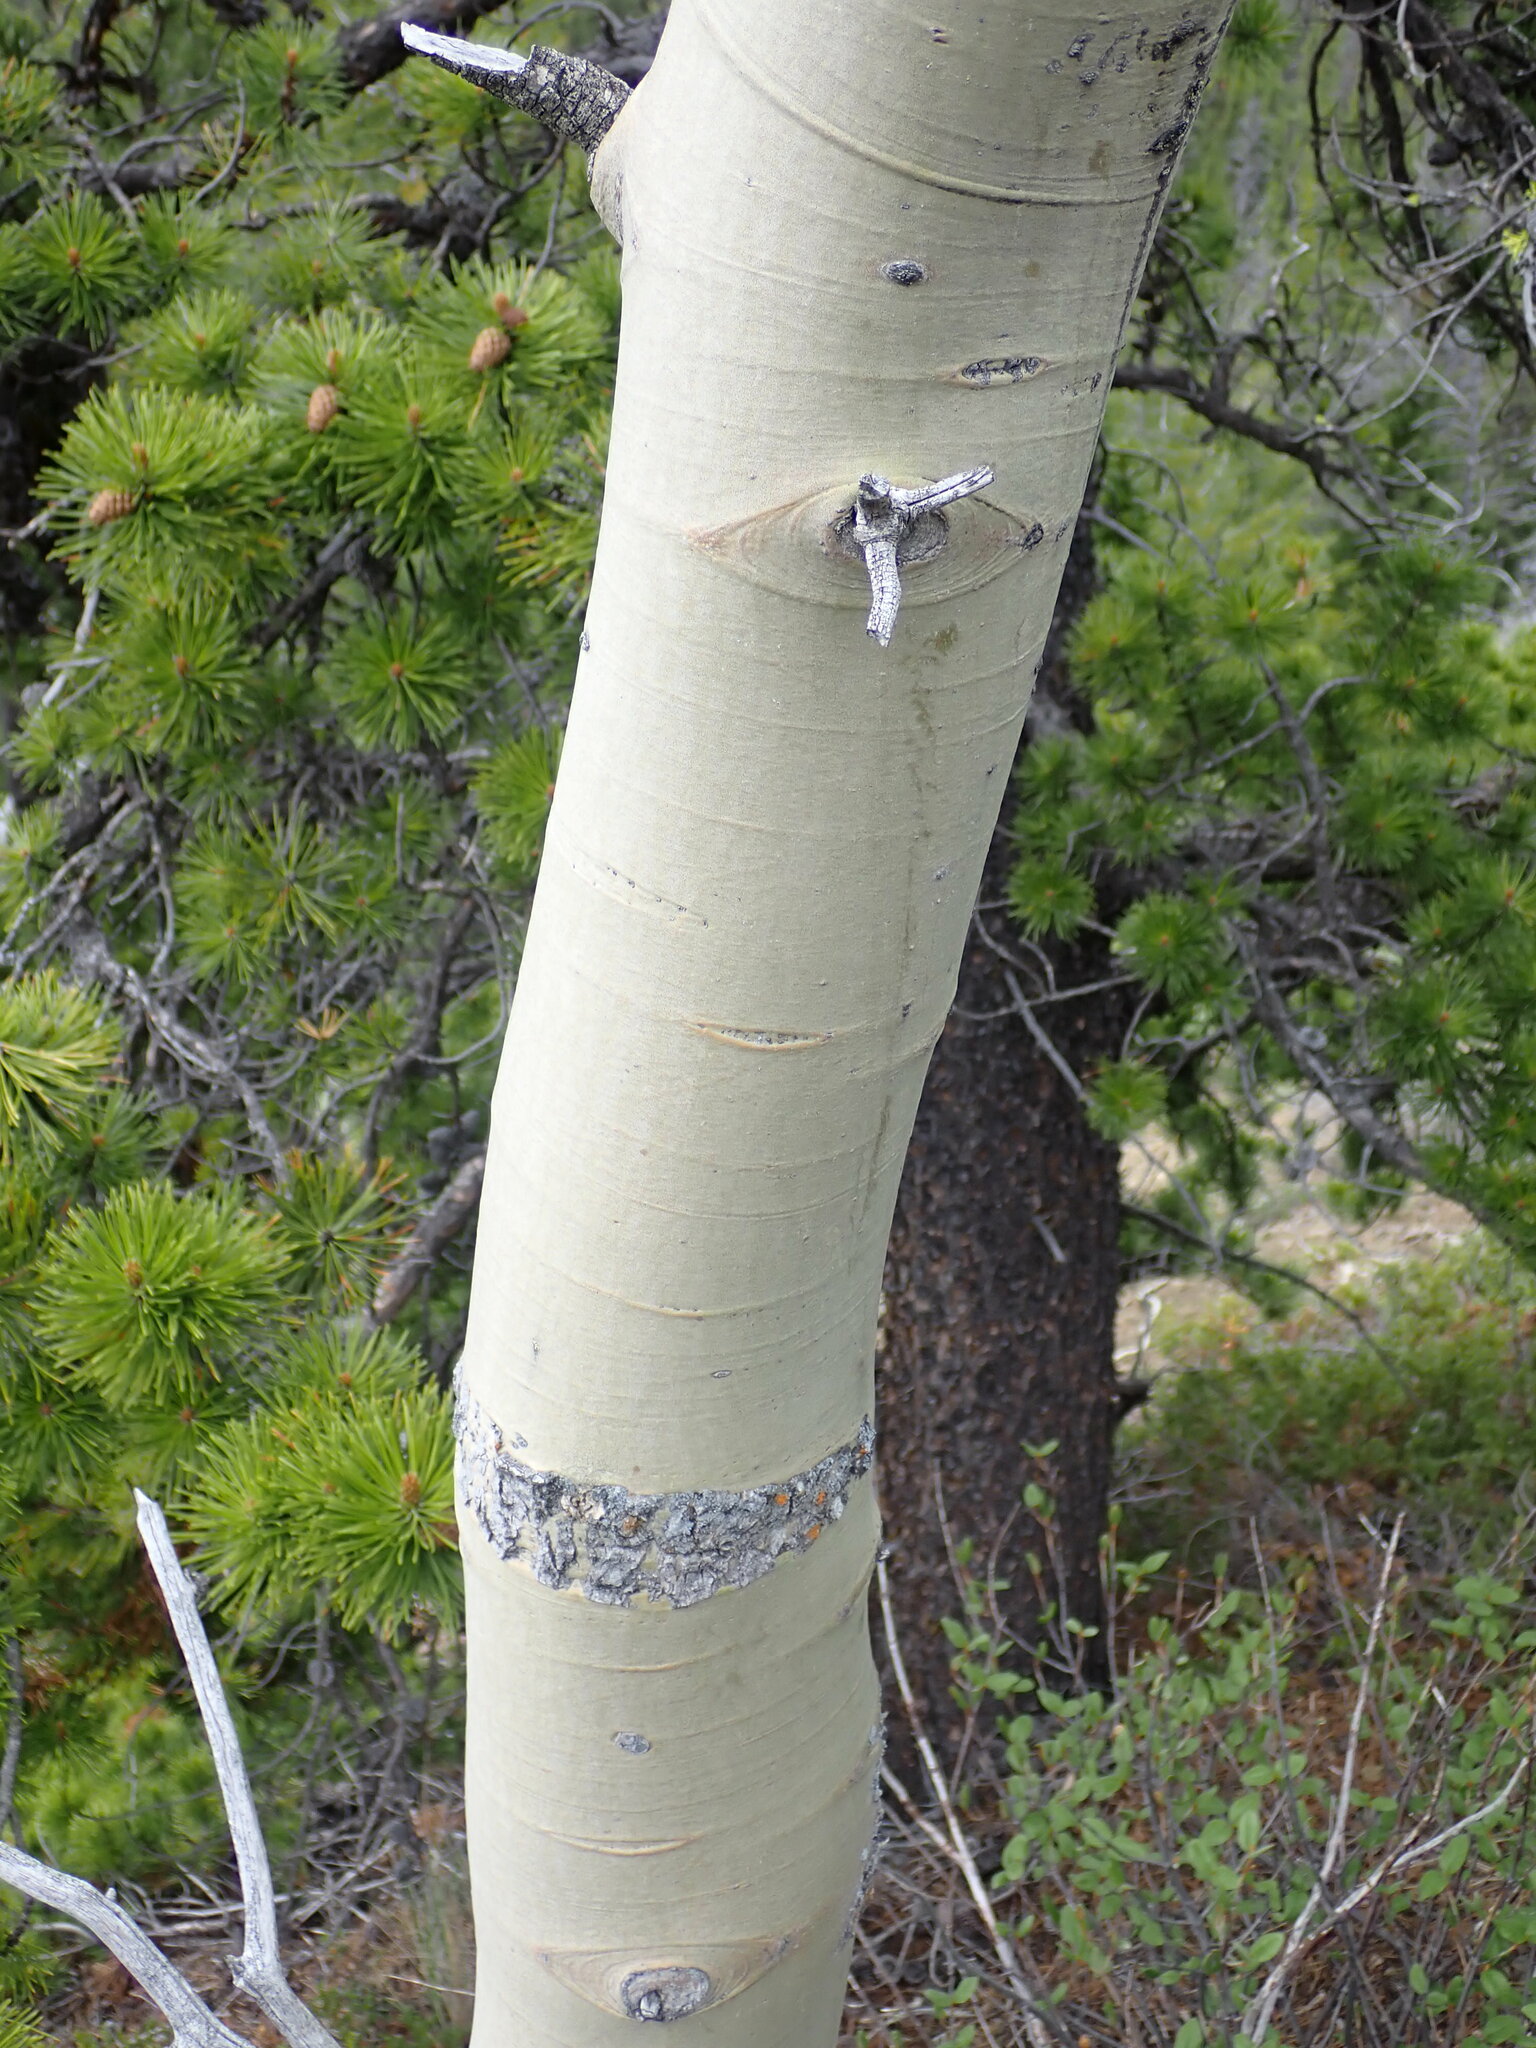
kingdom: Plantae
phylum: Tracheophyta
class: Magnoliopsida
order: Malpighiales
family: Salicaceae
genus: Populus
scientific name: Populus tremuloides
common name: Quaking aspen
